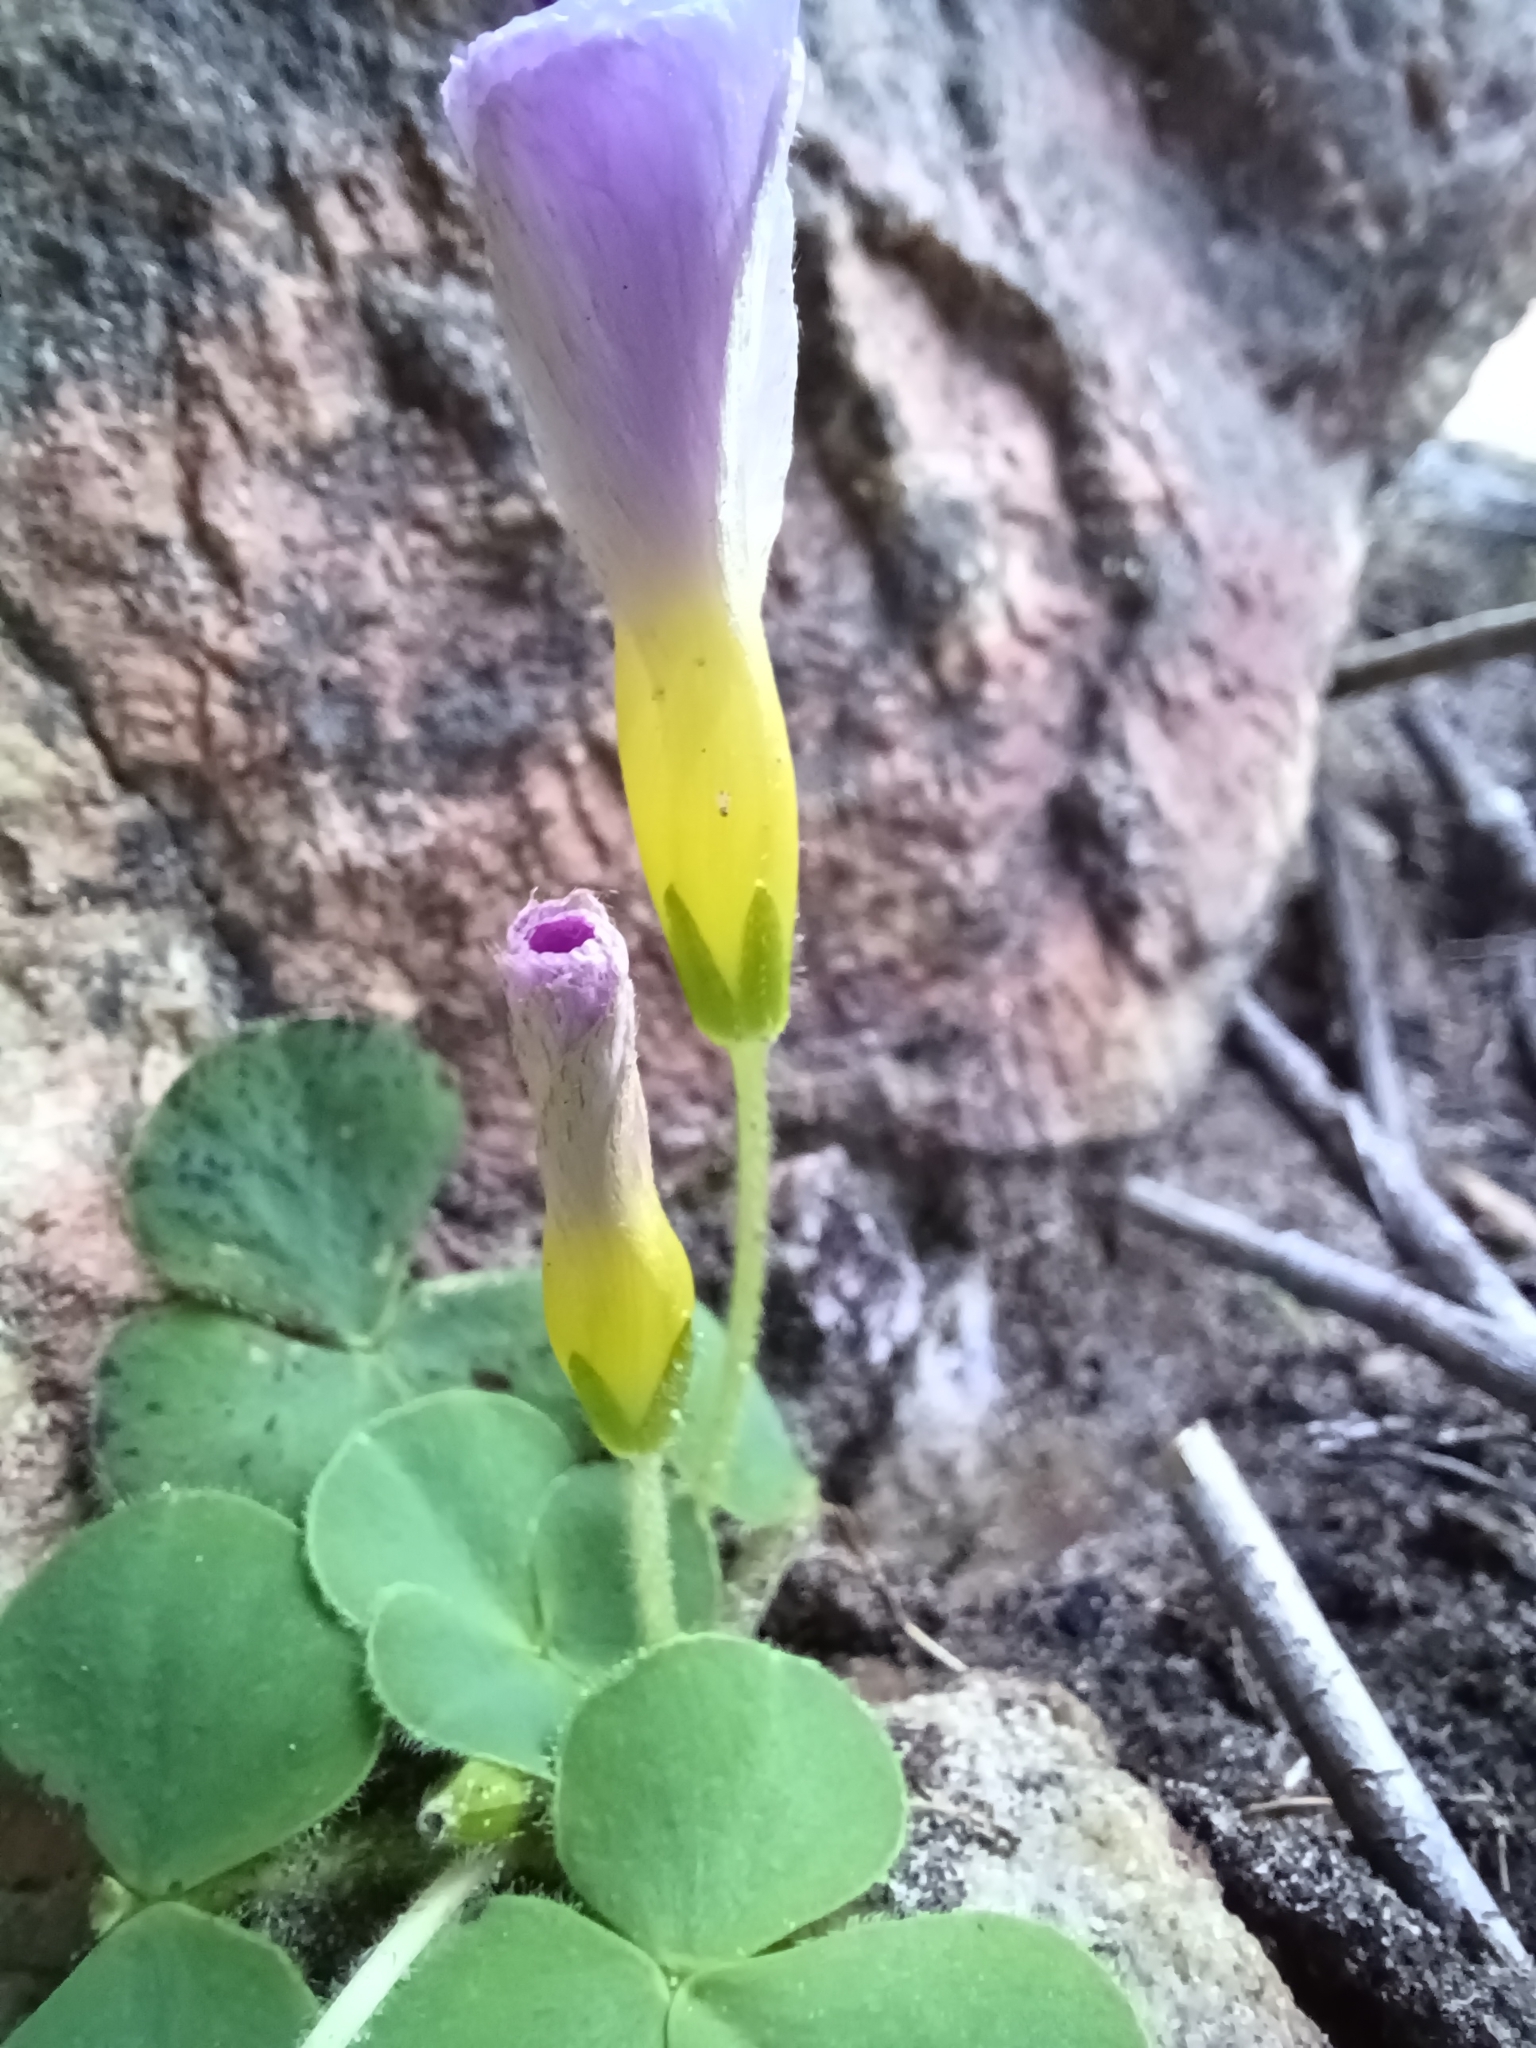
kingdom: Plantae
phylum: Tracheophyta
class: Magnoliopsida
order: Oxalidales
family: Oxalidaceae
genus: Oxalis
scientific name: Oxalis purpurea
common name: Purple woodsorrel
